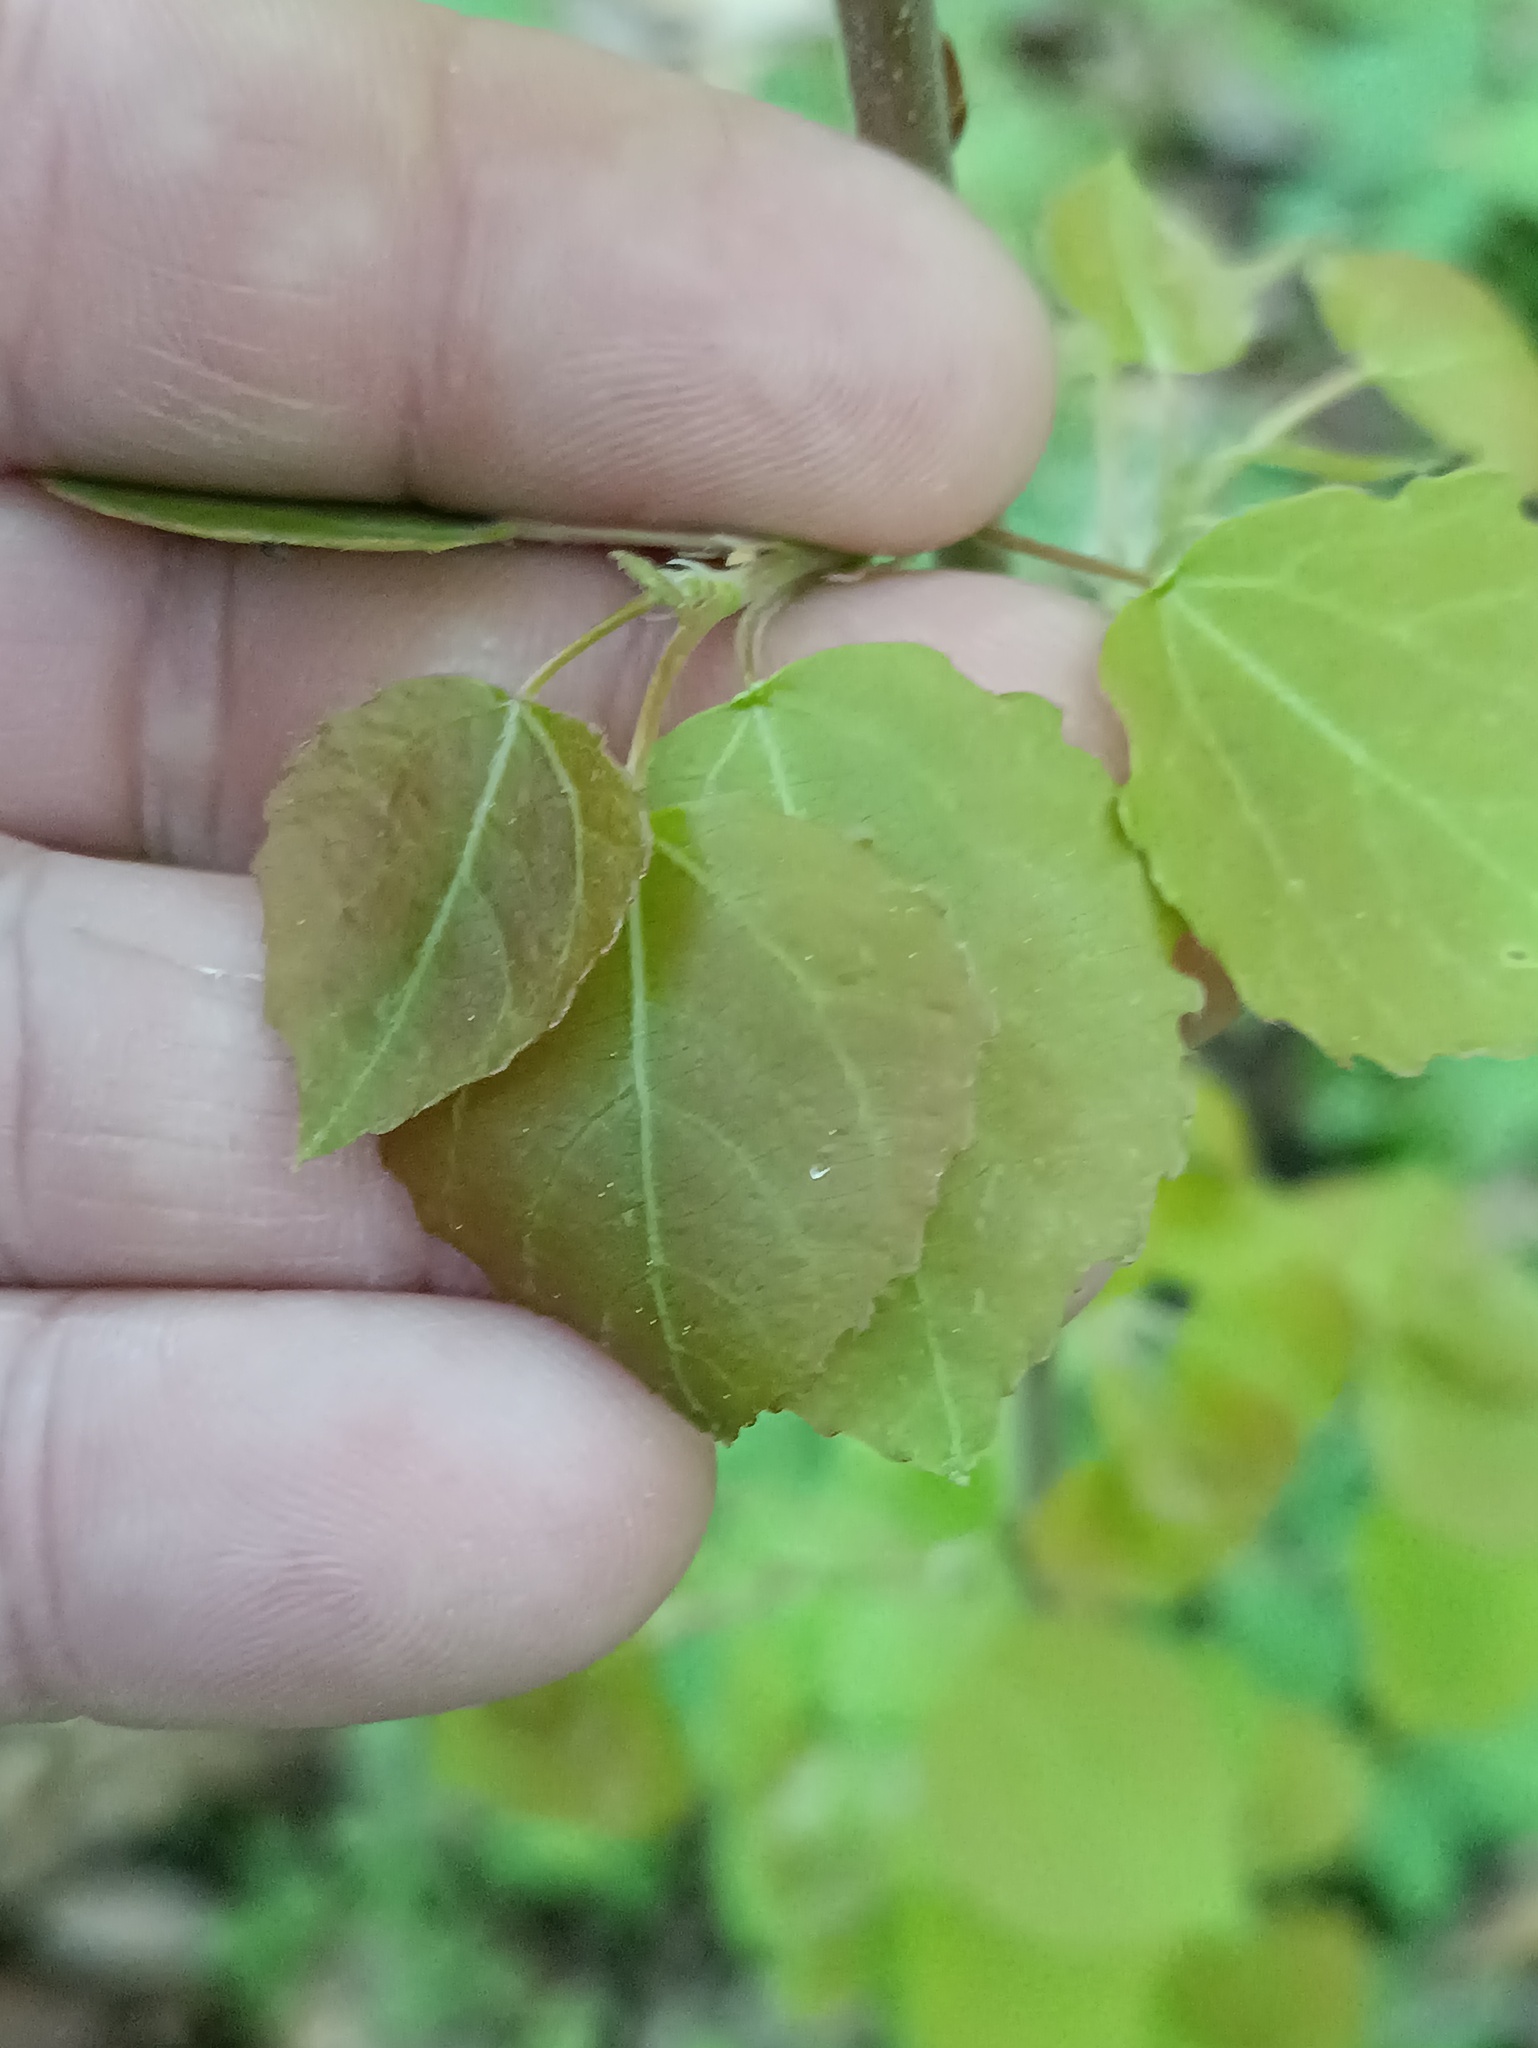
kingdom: Plantae
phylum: Tracheophyta
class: Magnoliopsida
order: Malpighiales
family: Salicaceae
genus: Populus
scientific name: Populus tremula
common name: European aspen
